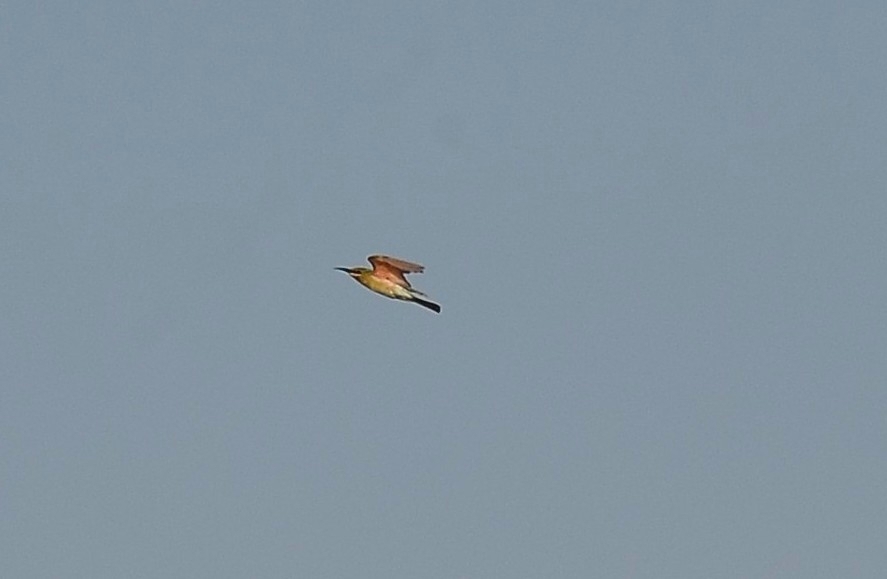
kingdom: Animalia
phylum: Chordata
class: Aves
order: Coraciiformes
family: Meropidae
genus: Merops
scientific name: Merops philippinus
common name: Blue-tailed bee-eater
